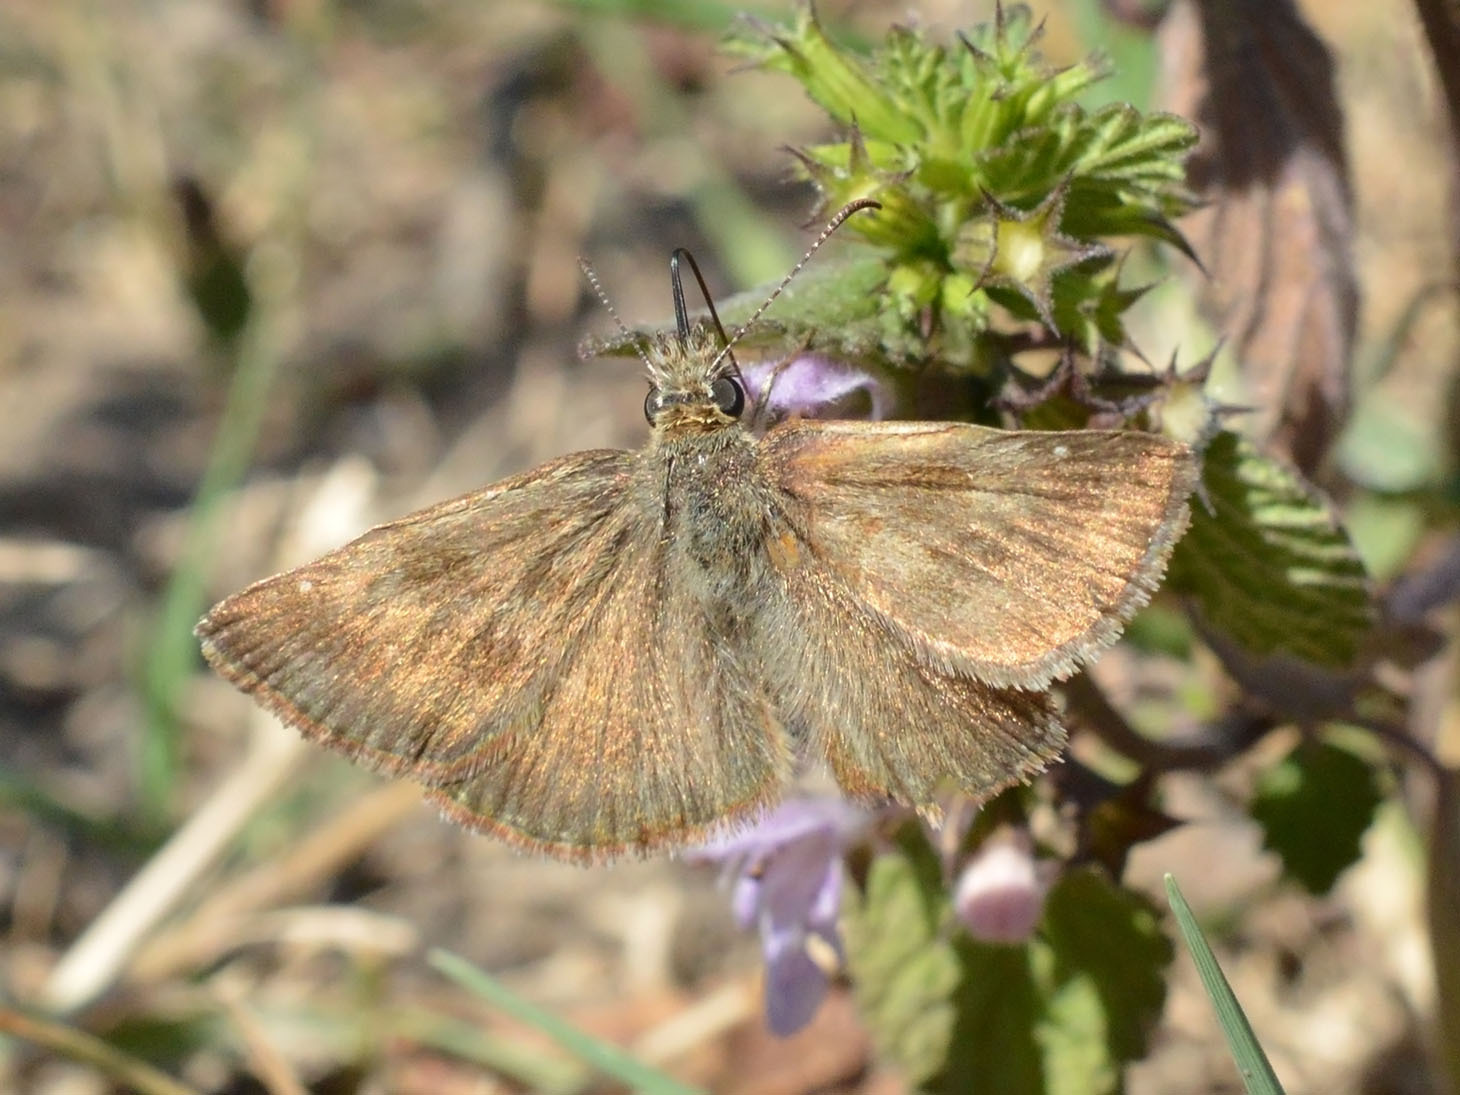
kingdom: Animalia
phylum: Arthropoda
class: Insecta
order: Lepidoptera
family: Hesperiidae
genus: Erynnis
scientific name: Erynnis tages
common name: Dingy skipper
